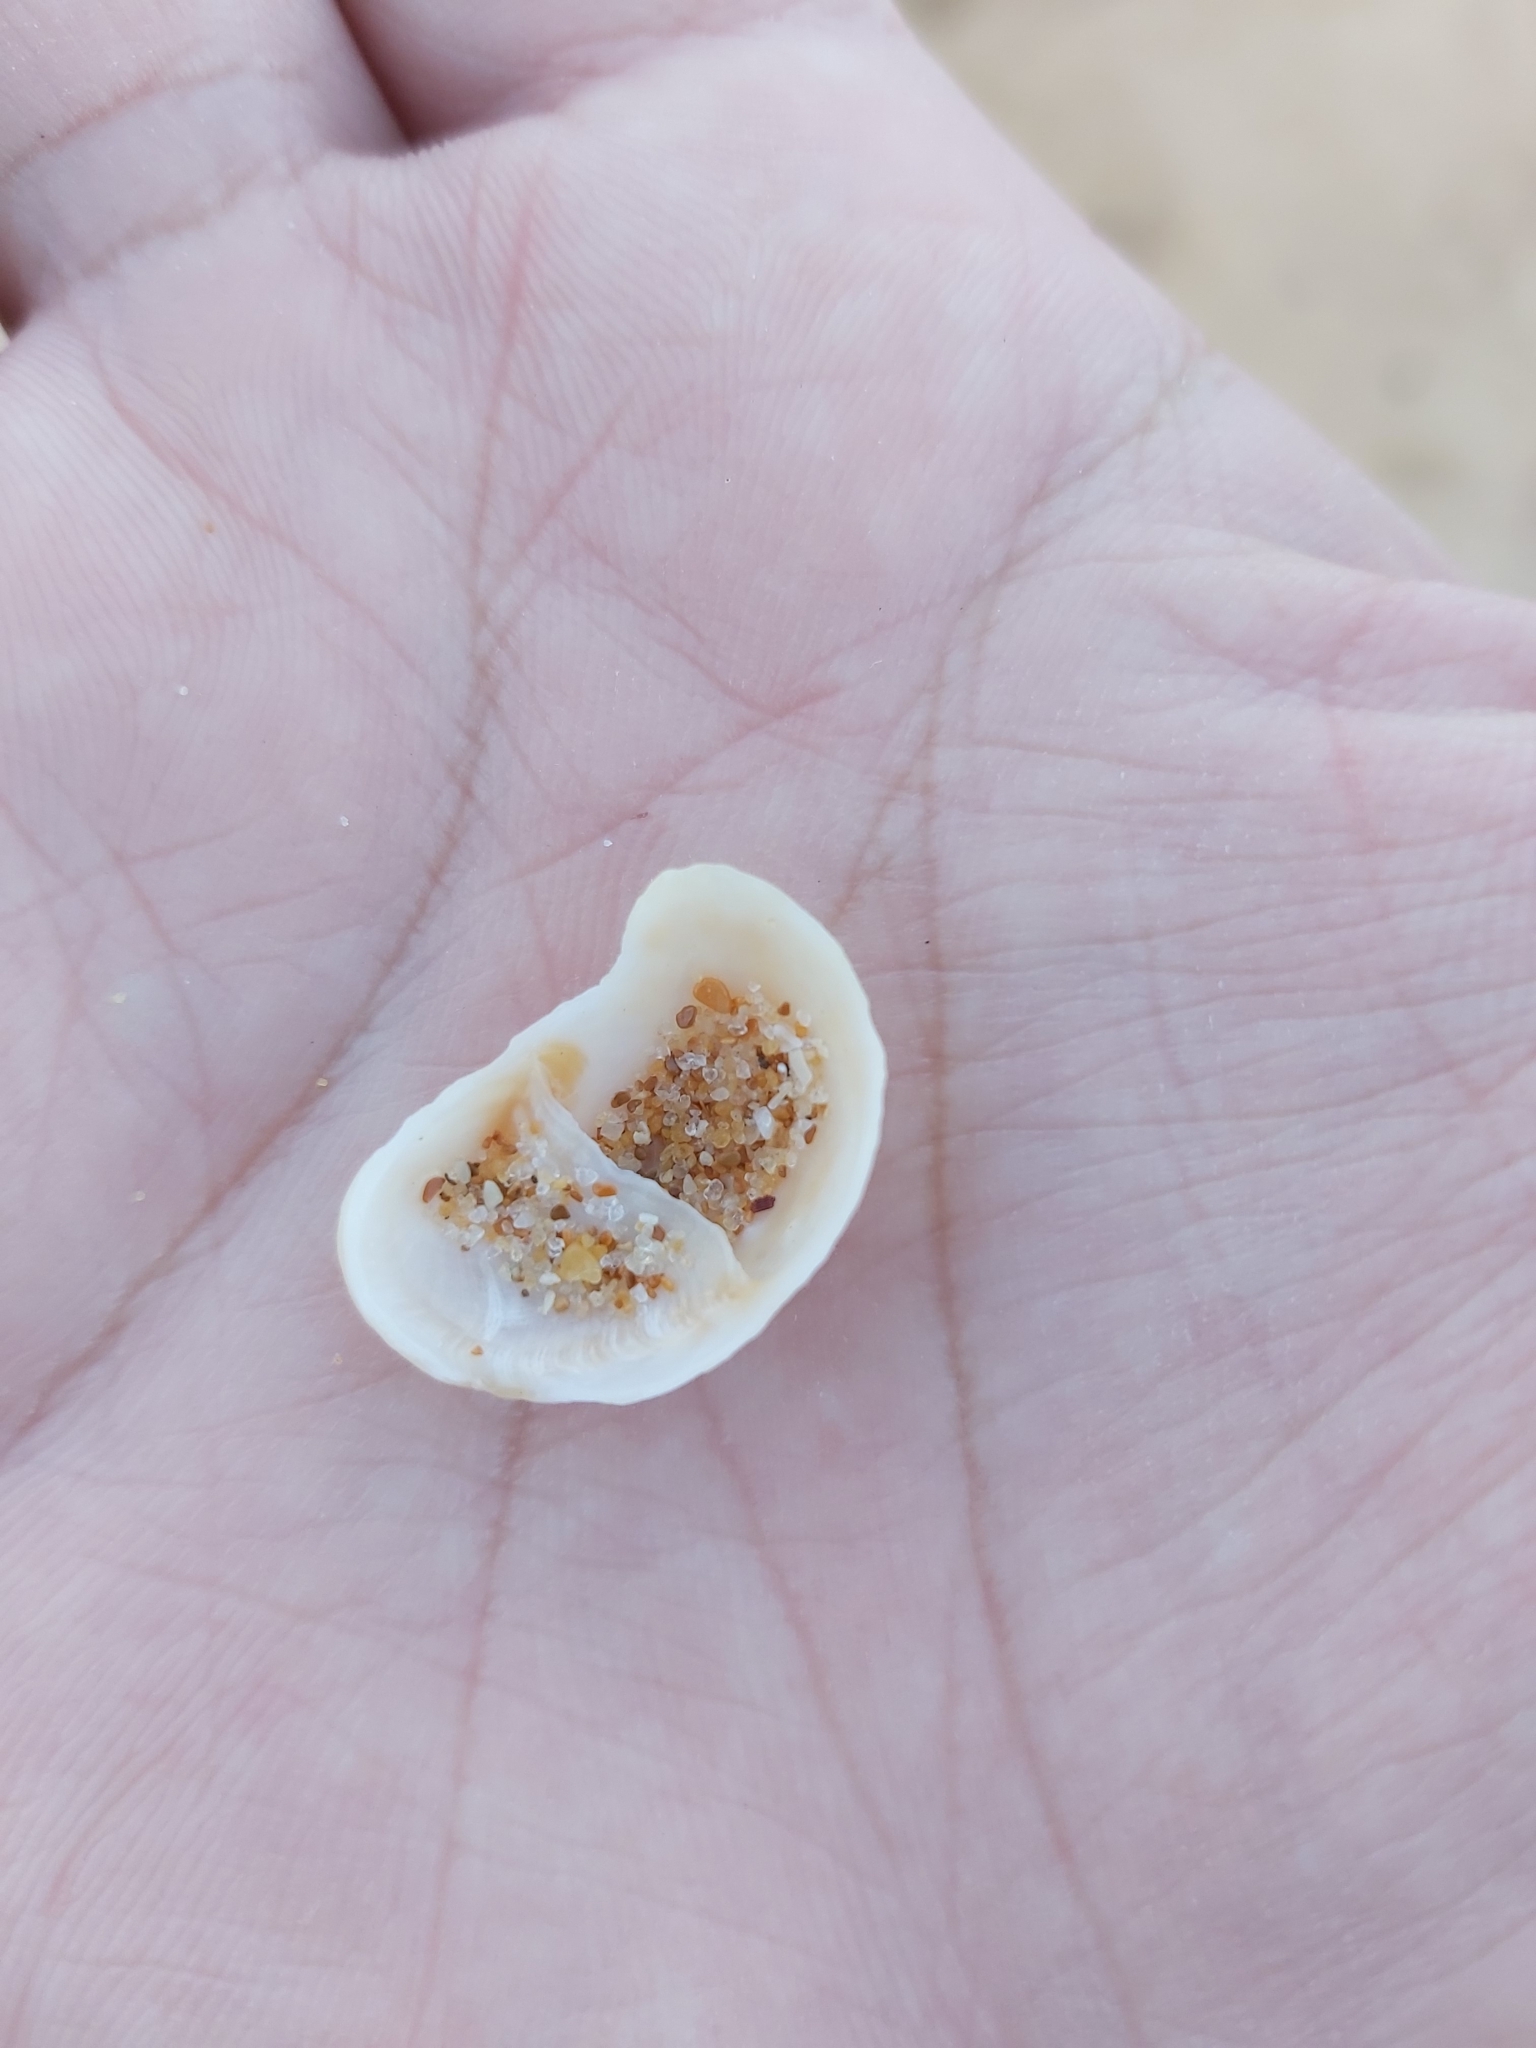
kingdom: Animalia
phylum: Mollusca
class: Gastropoda
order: Littorinimorpha
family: Calyptraeidae
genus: Bostrycapulus
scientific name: Bostrycapulus pritzkeri
